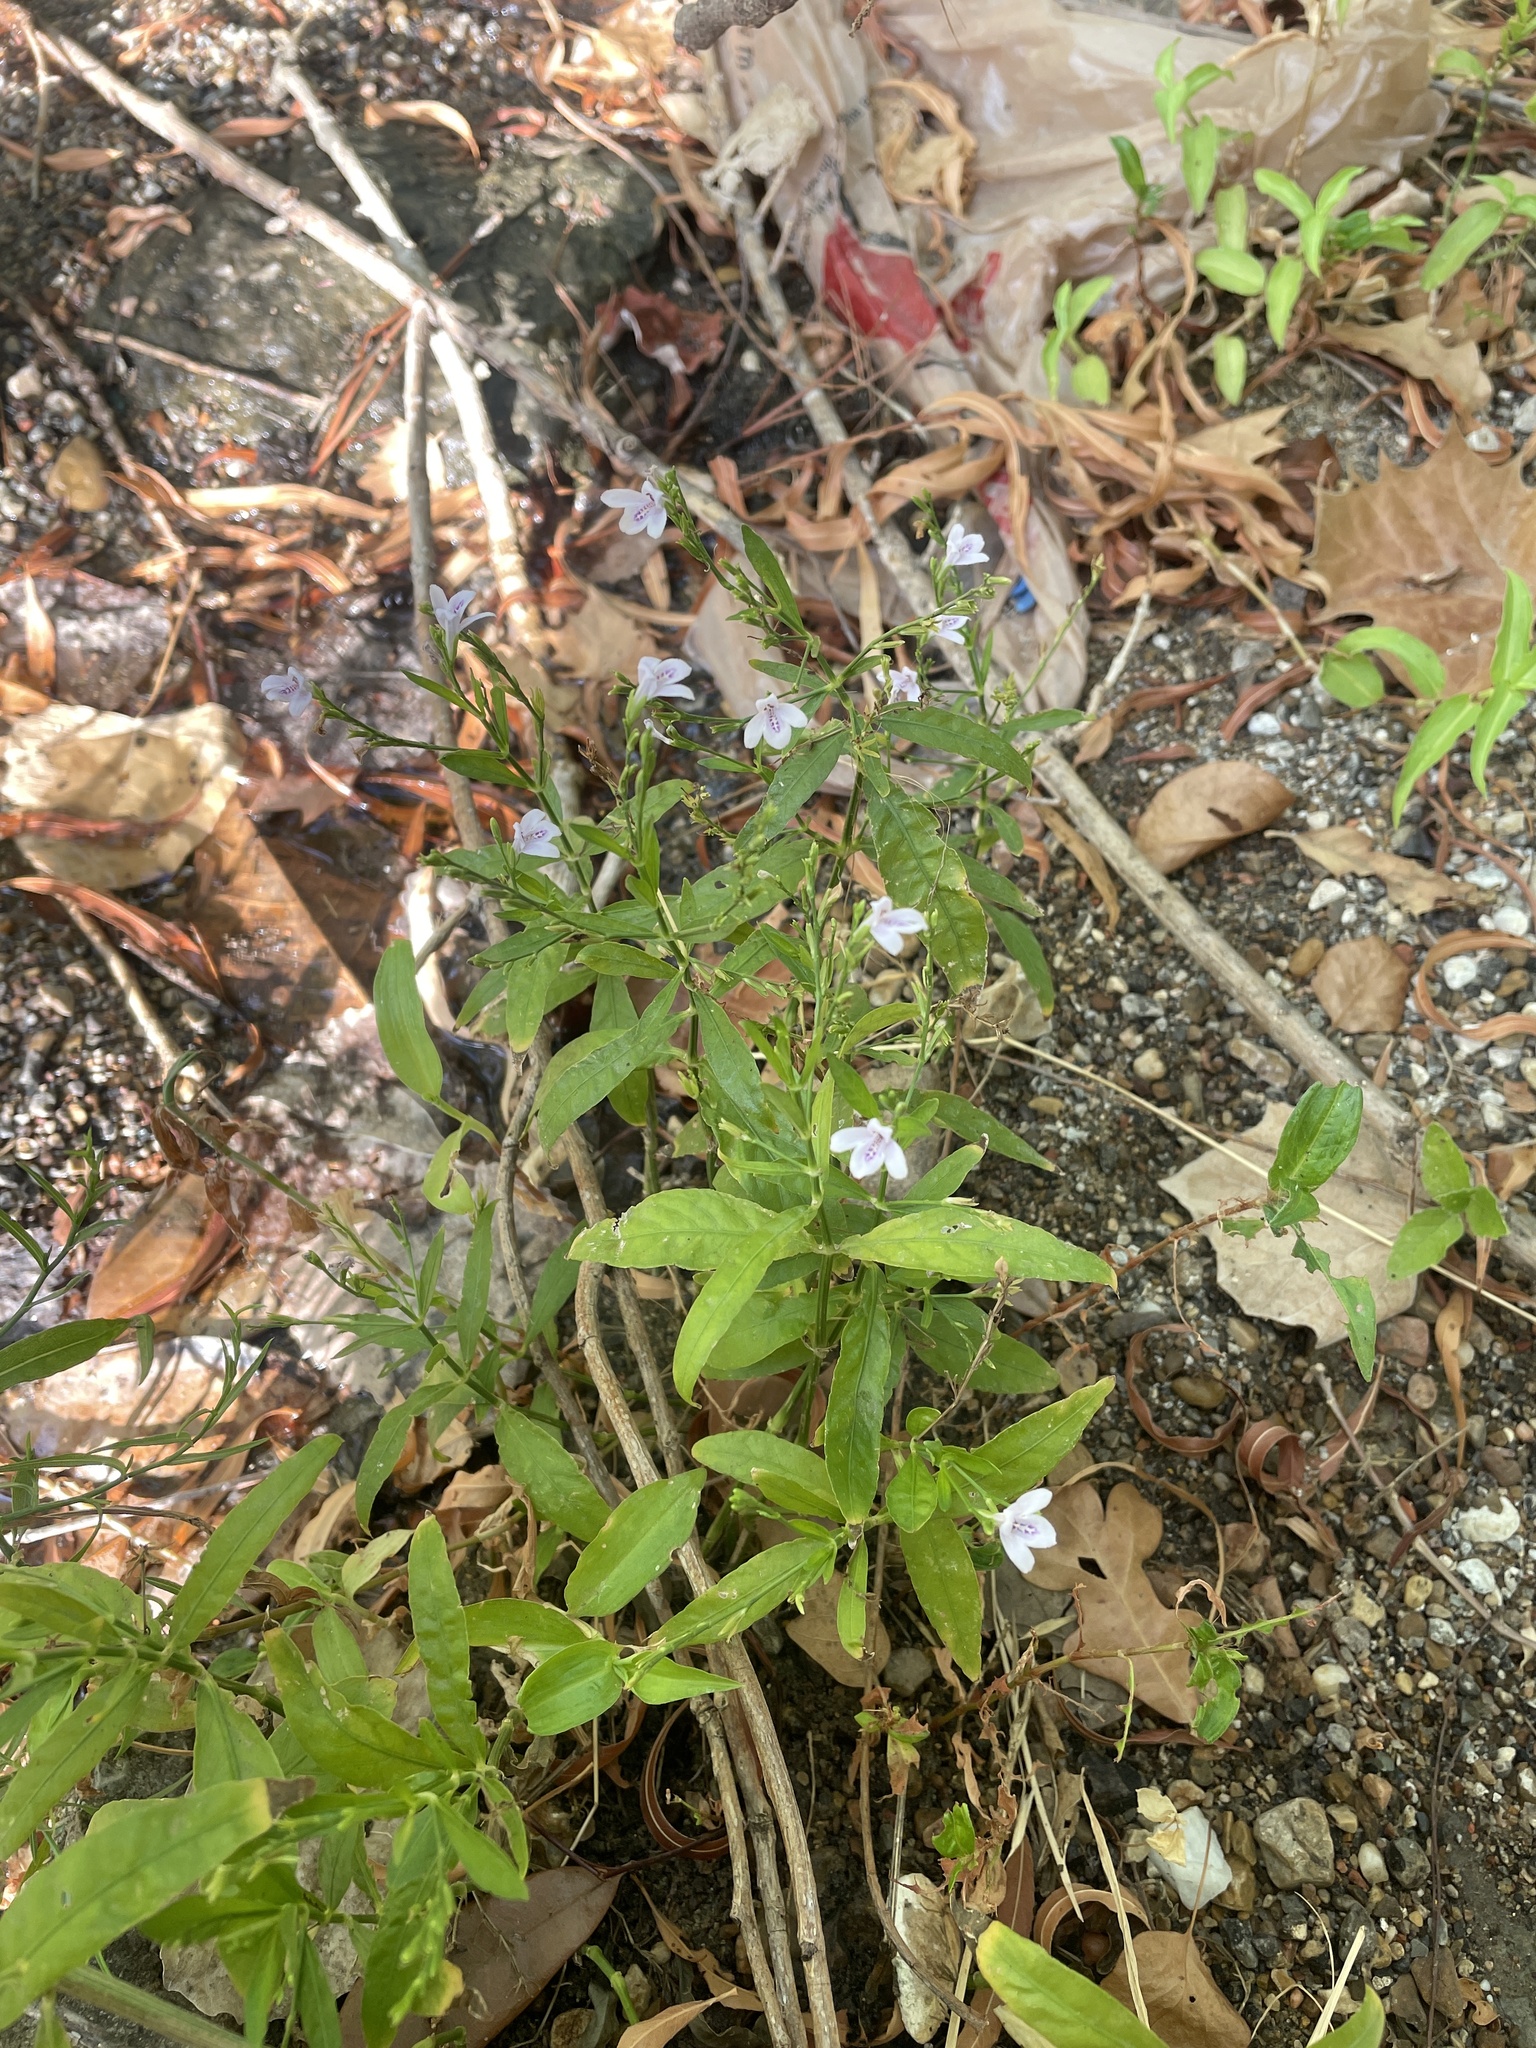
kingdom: Plantae
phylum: Tracheophyta
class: Magnoliopsida
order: Lamiales
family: Acanthaceae
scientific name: Acanthaceae
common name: Acanthaceae
